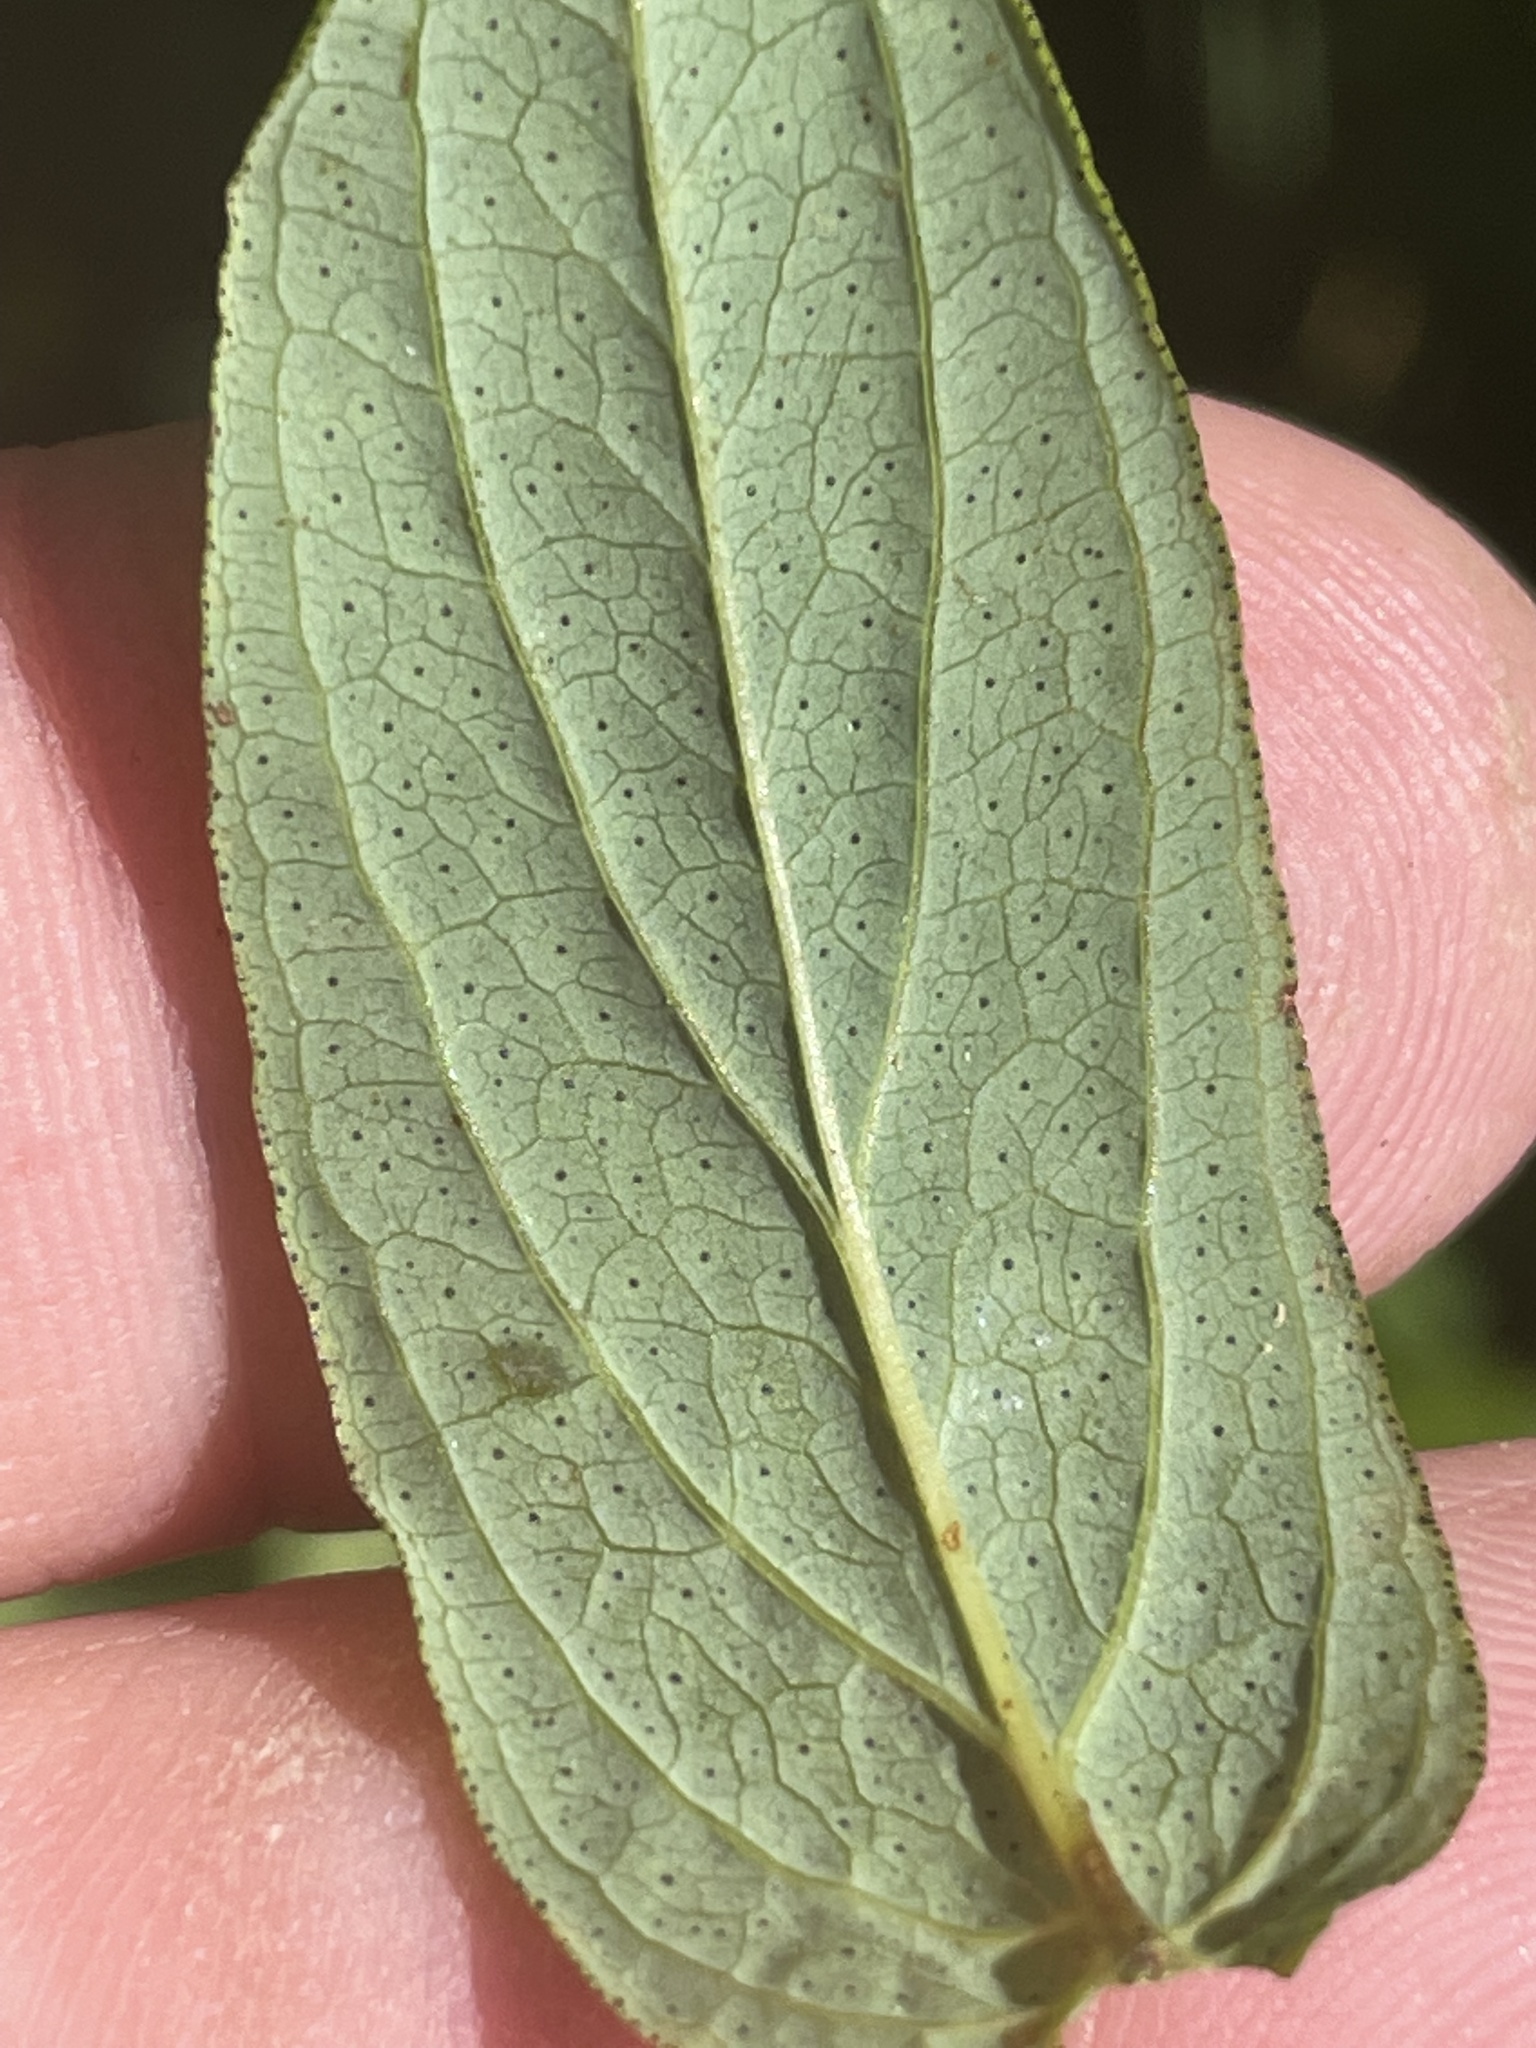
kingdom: Plantae
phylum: Tracheophyta
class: Magnoliopsida
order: Malpighiales
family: Hypericaceae
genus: Hypericum
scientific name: Hypericum punctatum
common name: Spotted st. john's-wort
